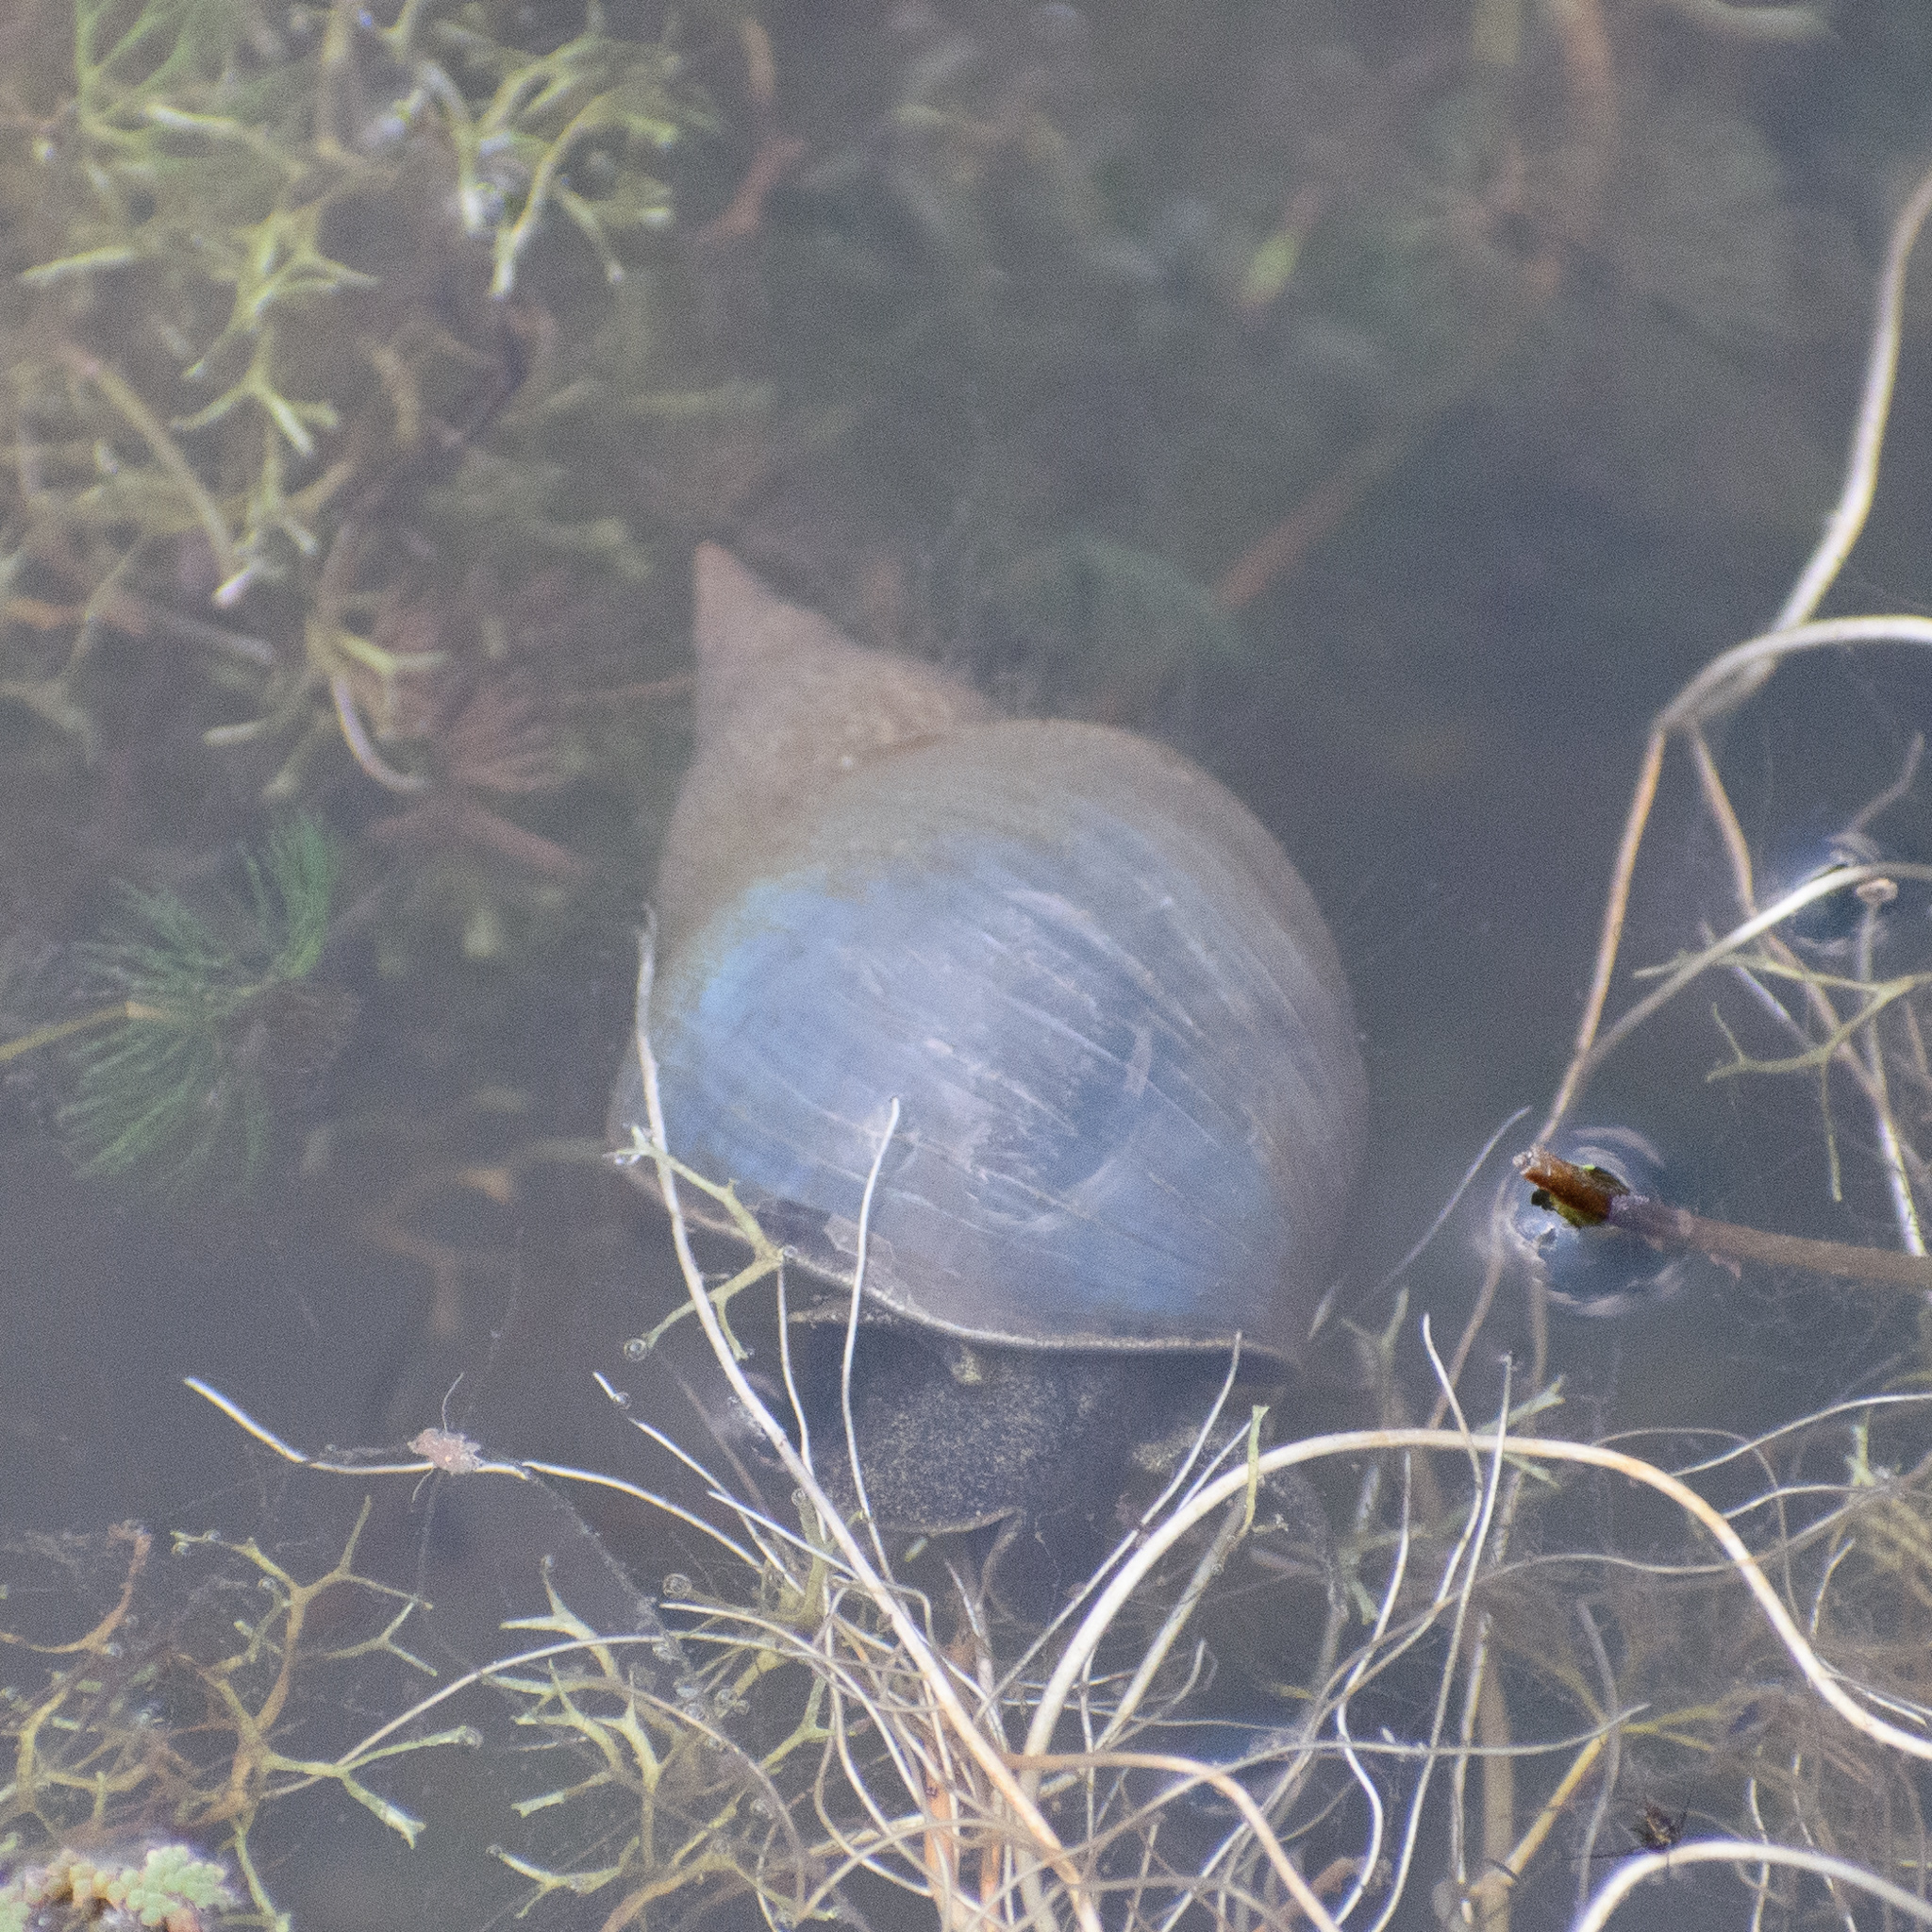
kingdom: Animalia
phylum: Mollusca
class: Gastropoda
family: Lymnaeidae
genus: Lymnaea
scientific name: Lymnaea stagnalis
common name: Great pond snail
